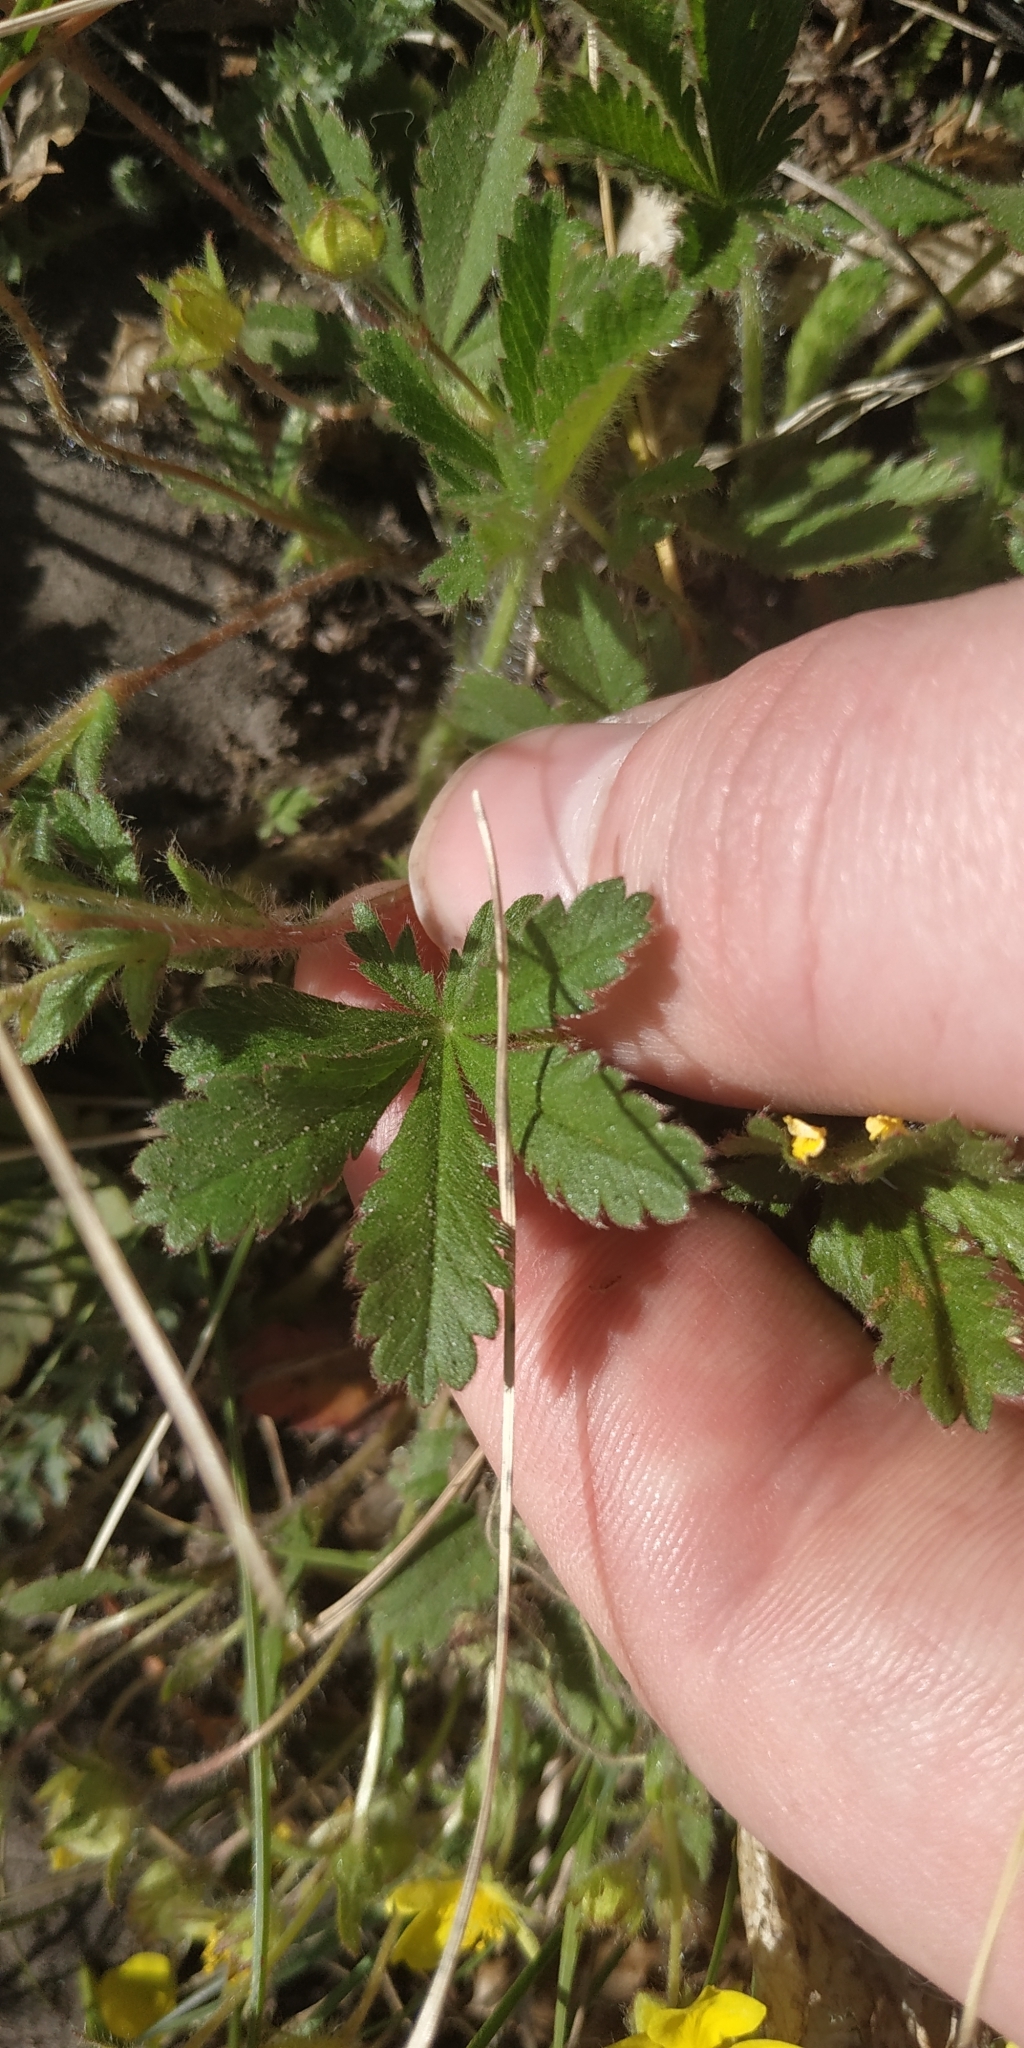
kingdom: Plantae
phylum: Tracheophyta
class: Magnoliopsida
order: Rosales
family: Rosaceae
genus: Potentilla
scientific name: Potentilla humifusa
